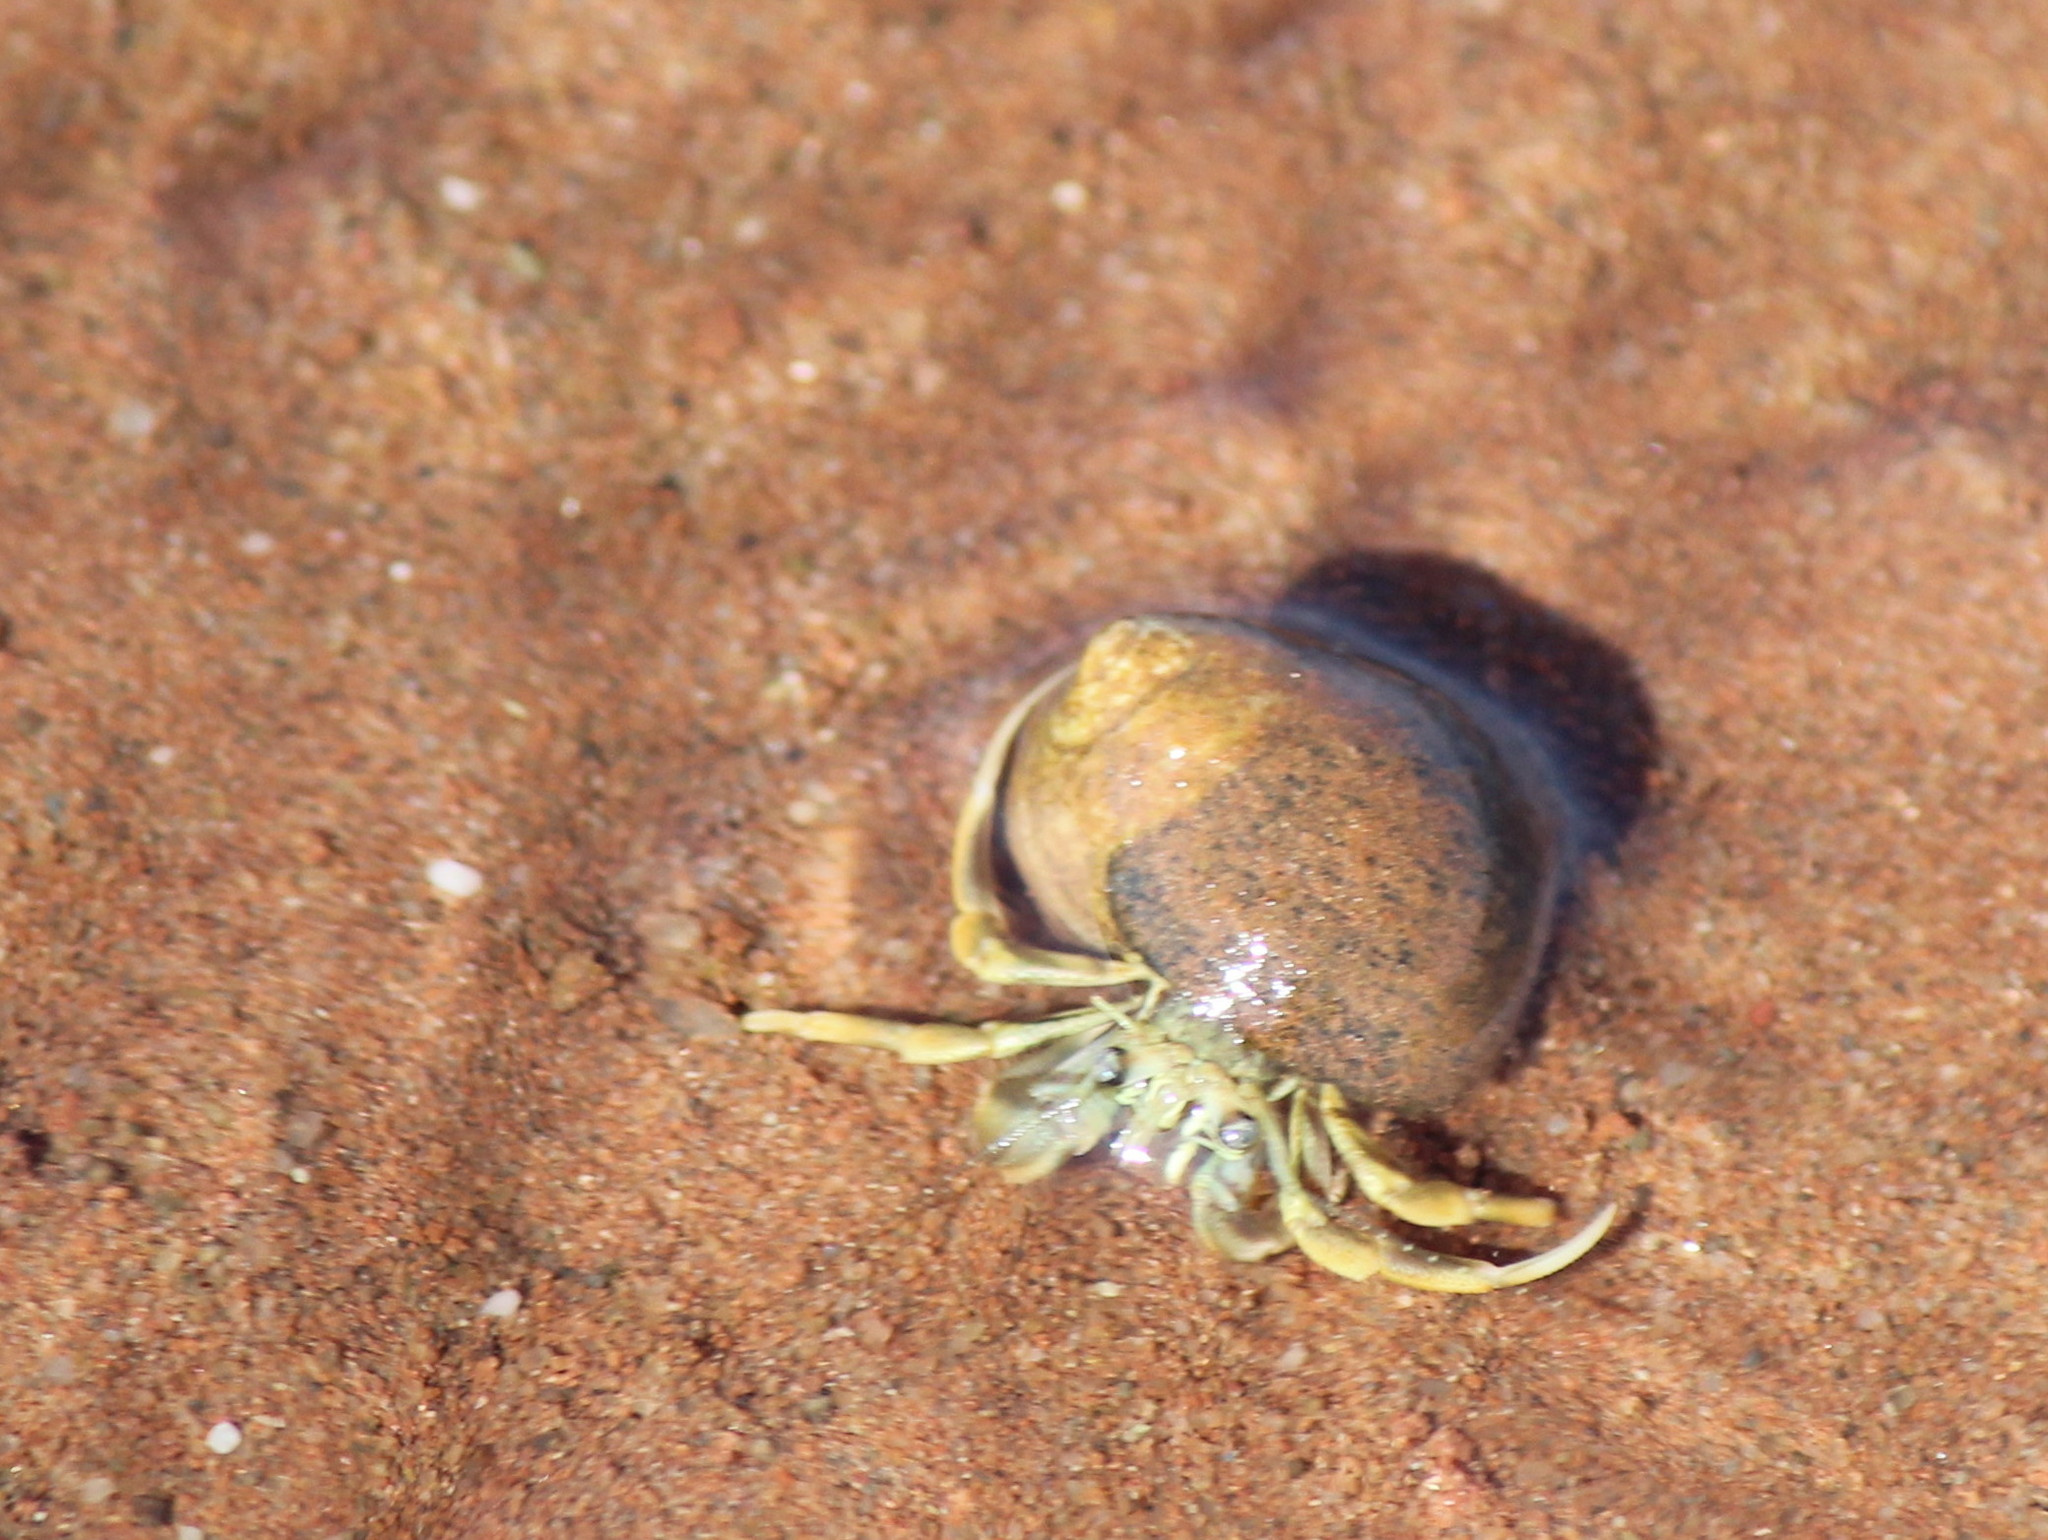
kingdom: Animalia
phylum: Arthropoda
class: Malacostraca
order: Decapoda
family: Paguridae
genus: Pagurus
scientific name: Pagurus longicarpus
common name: Long-armed hermit crab
